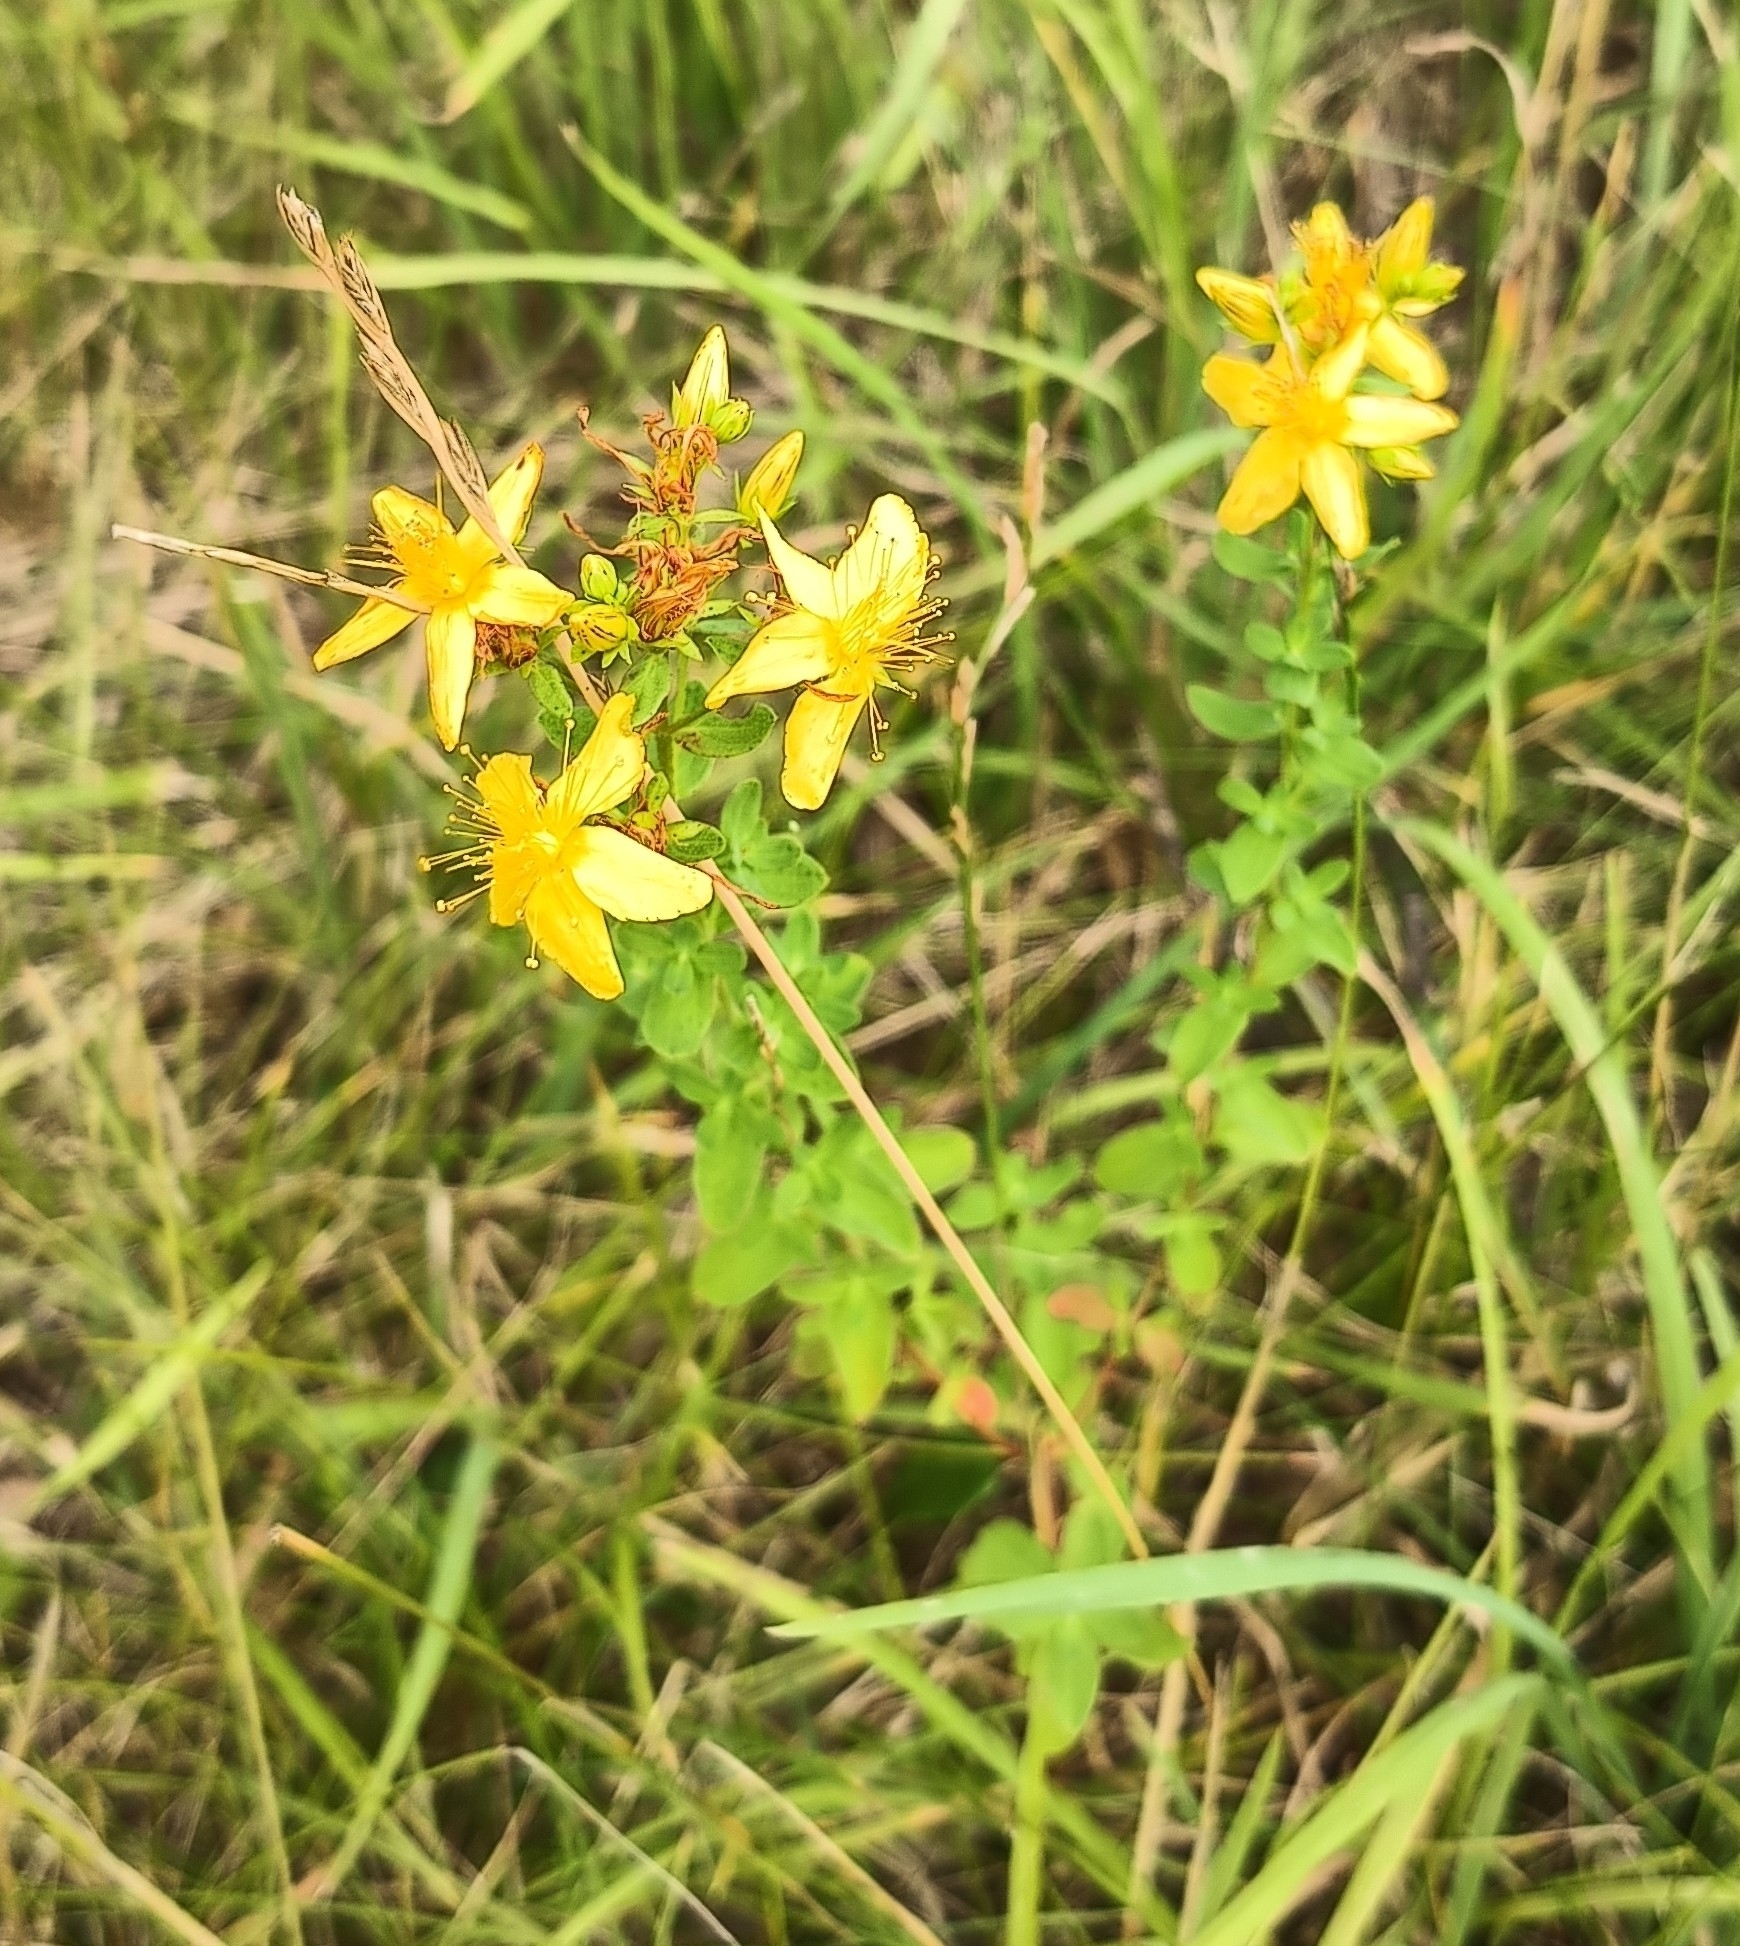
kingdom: Plantae
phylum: Tracheophyta
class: Magnoliopsida
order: Malpighiales
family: Hypericaceae
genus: Hypericum
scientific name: Hypericum perforatum
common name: Common st. johnswort
